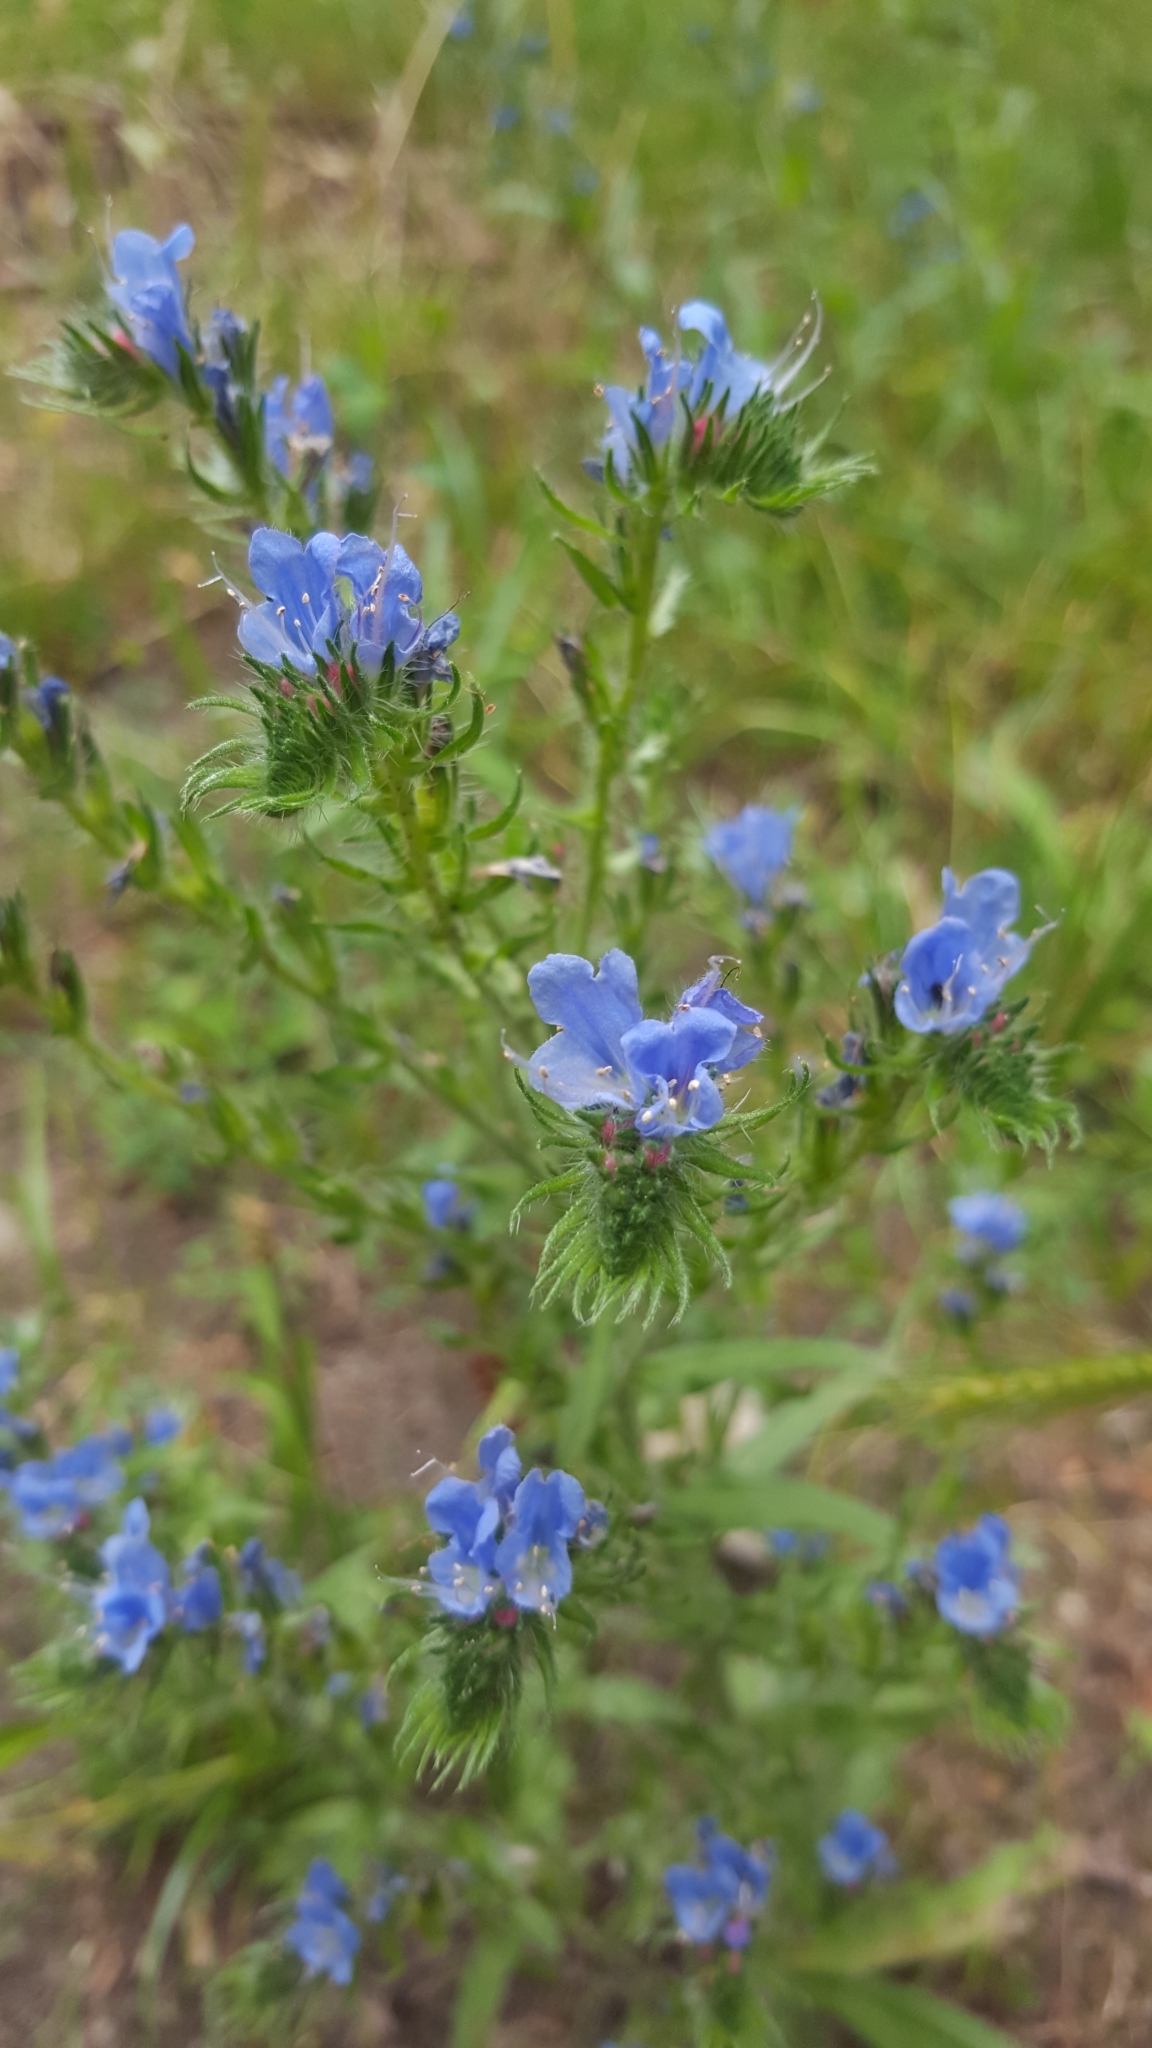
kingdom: Plantae
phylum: Tracheophyta
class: Magnoliopsida
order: Boraginales
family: Boraginaceae
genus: Echium
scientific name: Echium vulgare
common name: Common viper's bugloss
